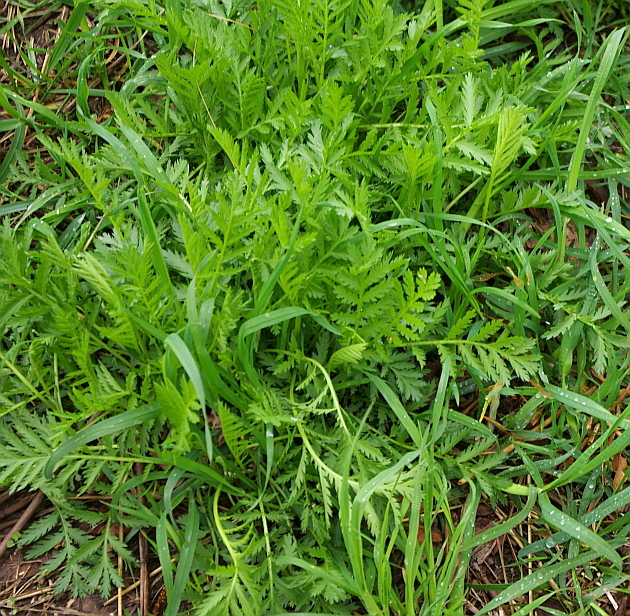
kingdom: Plantae
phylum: Tracheophyta
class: Magnoliopsida
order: Asterales
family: Asteraceae
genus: Tanacetum
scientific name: Tanacetum vulgare
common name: Common tansy
